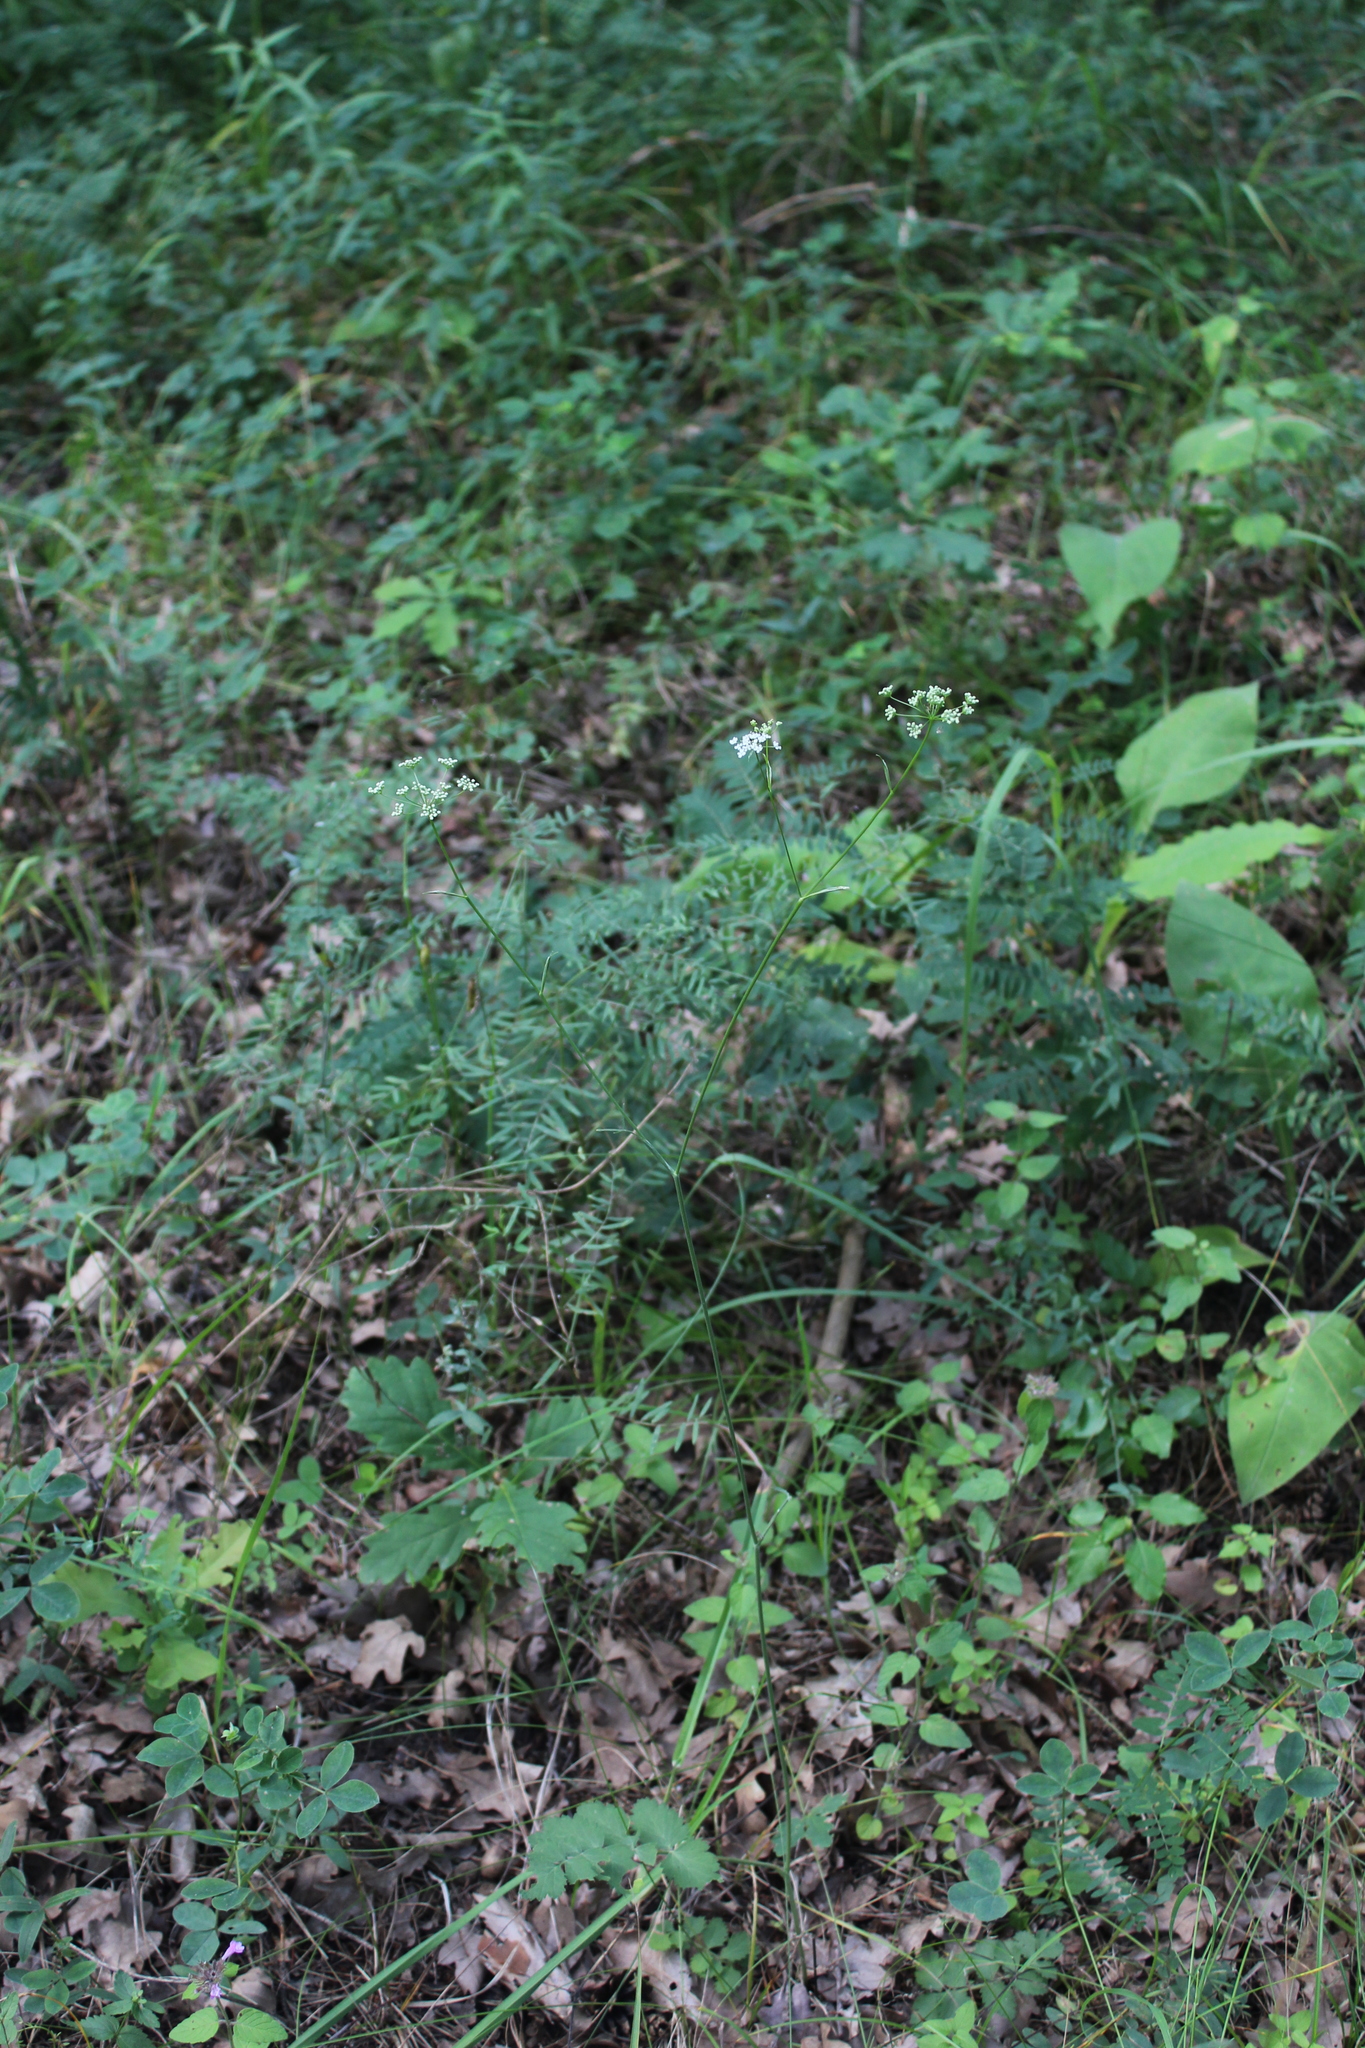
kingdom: Plantae
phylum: Tracheophyta
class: Magnoliopsida
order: Apiales
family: Apiaceae
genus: Pimpinella
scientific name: Pimpinella saxifraga
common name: Burnet-saxifrage
